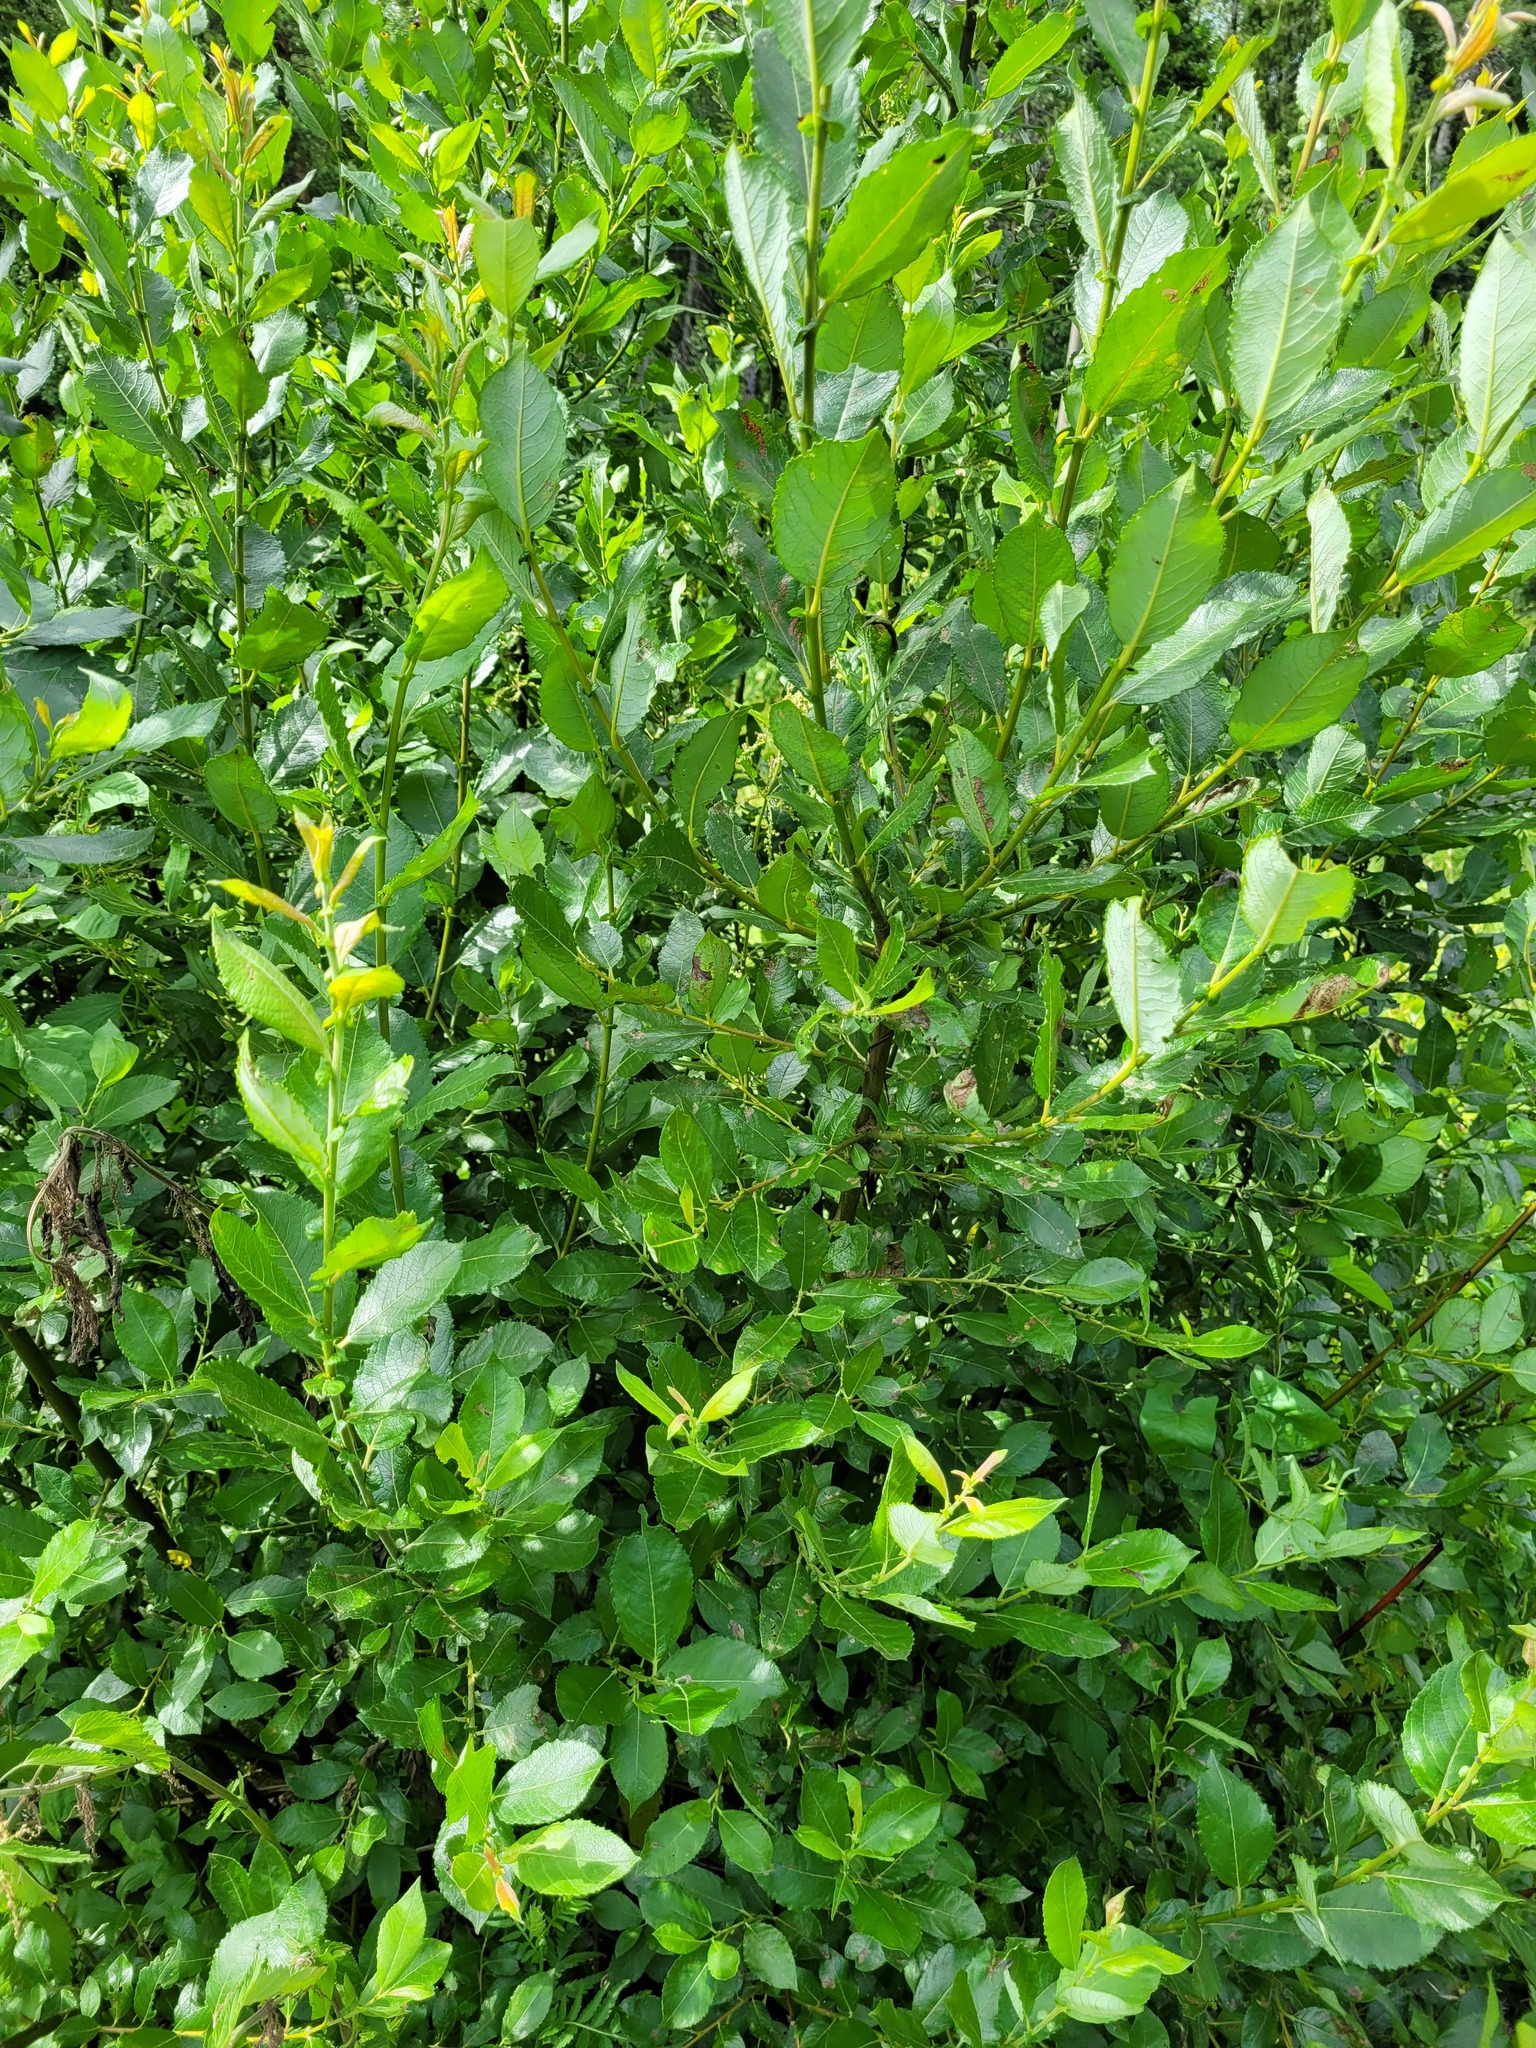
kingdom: Plantae
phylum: Tracheophyta
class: Magnoliopsida
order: Malpighiales
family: Salicaceae
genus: Salix
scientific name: Salix myrsinifolia
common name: Dark-leaved willow
